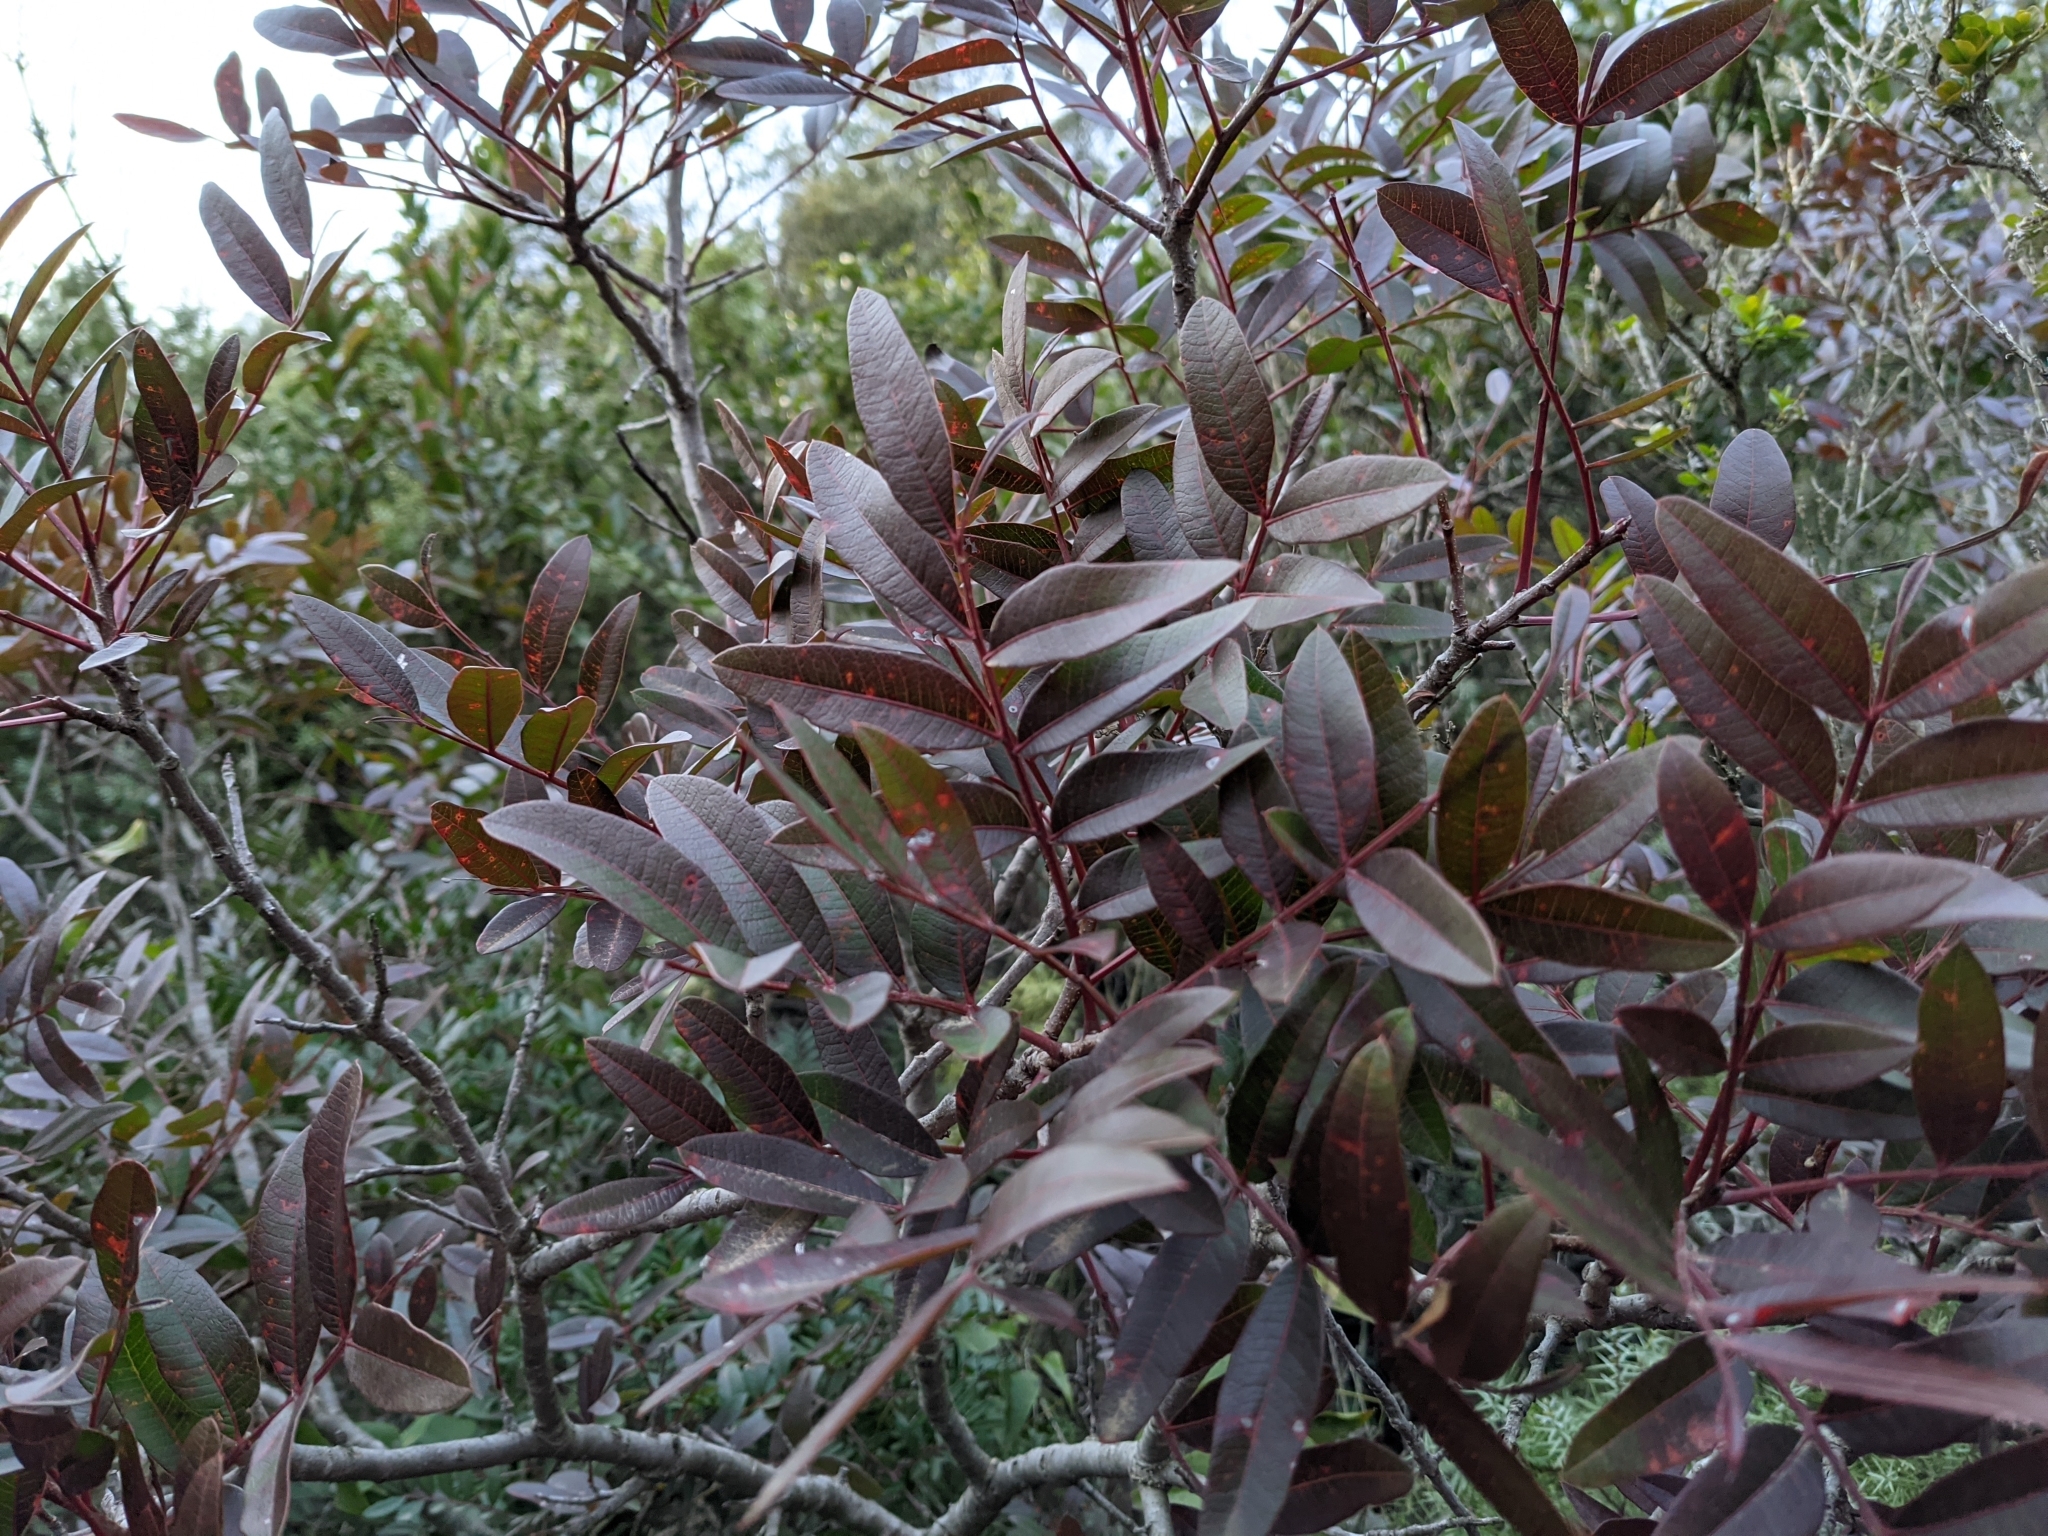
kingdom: Plantae
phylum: Tracheophyta
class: Magnoliopsida
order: Sapindales
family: Anacardiaceae
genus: Pistacia
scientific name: Pistacia saportae
